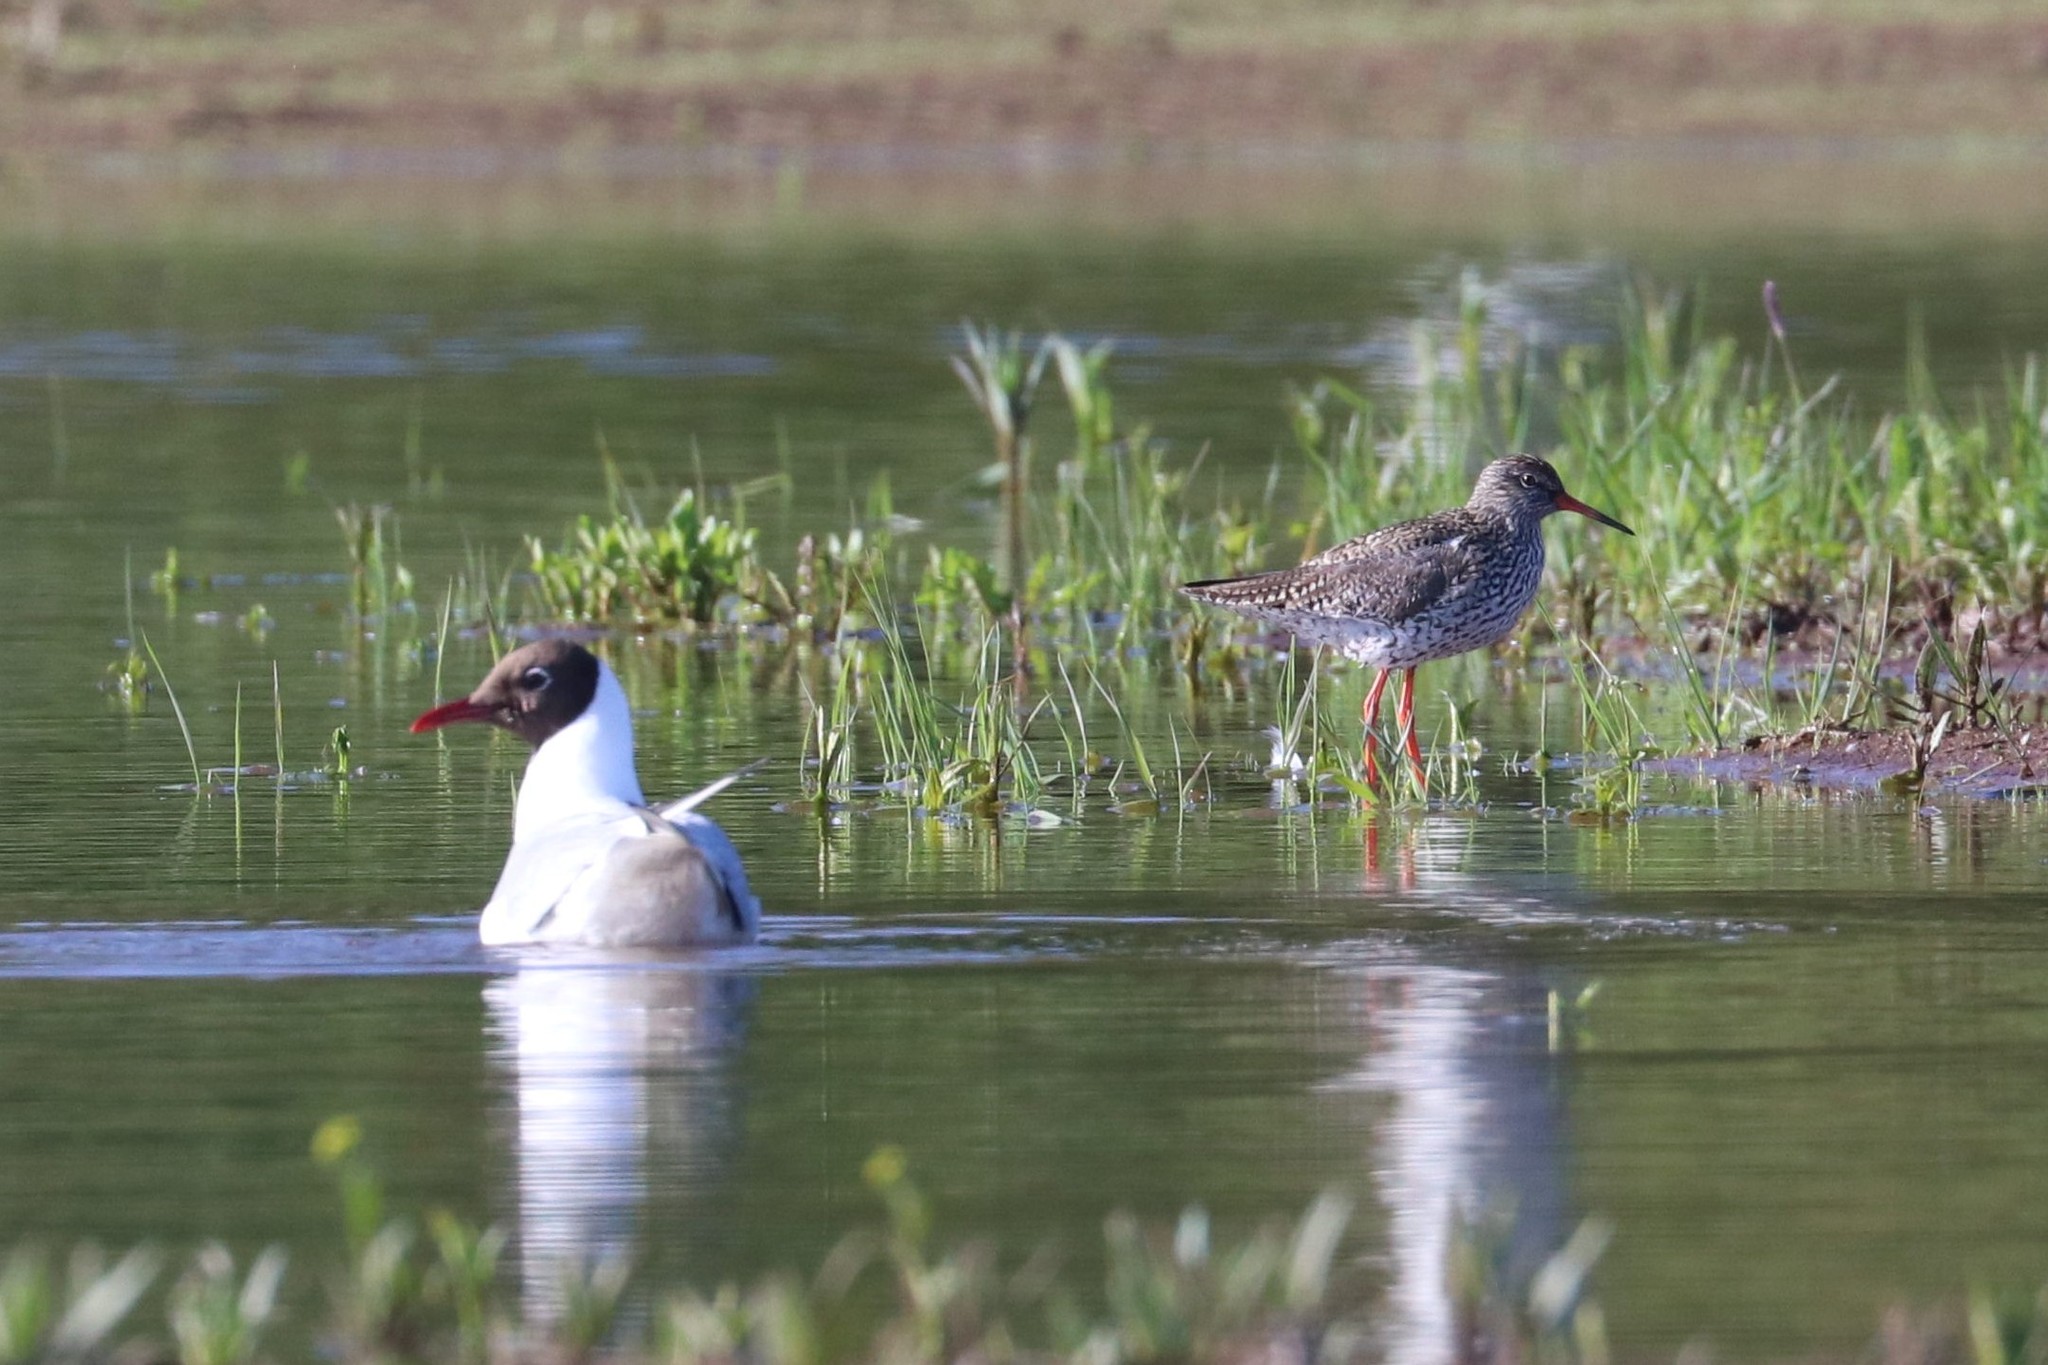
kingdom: Animalia
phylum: Chordata
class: Aves
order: Charadriiformes
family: Scolopacidae
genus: Tringa
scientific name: Tringa totanus
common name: Common redshank
